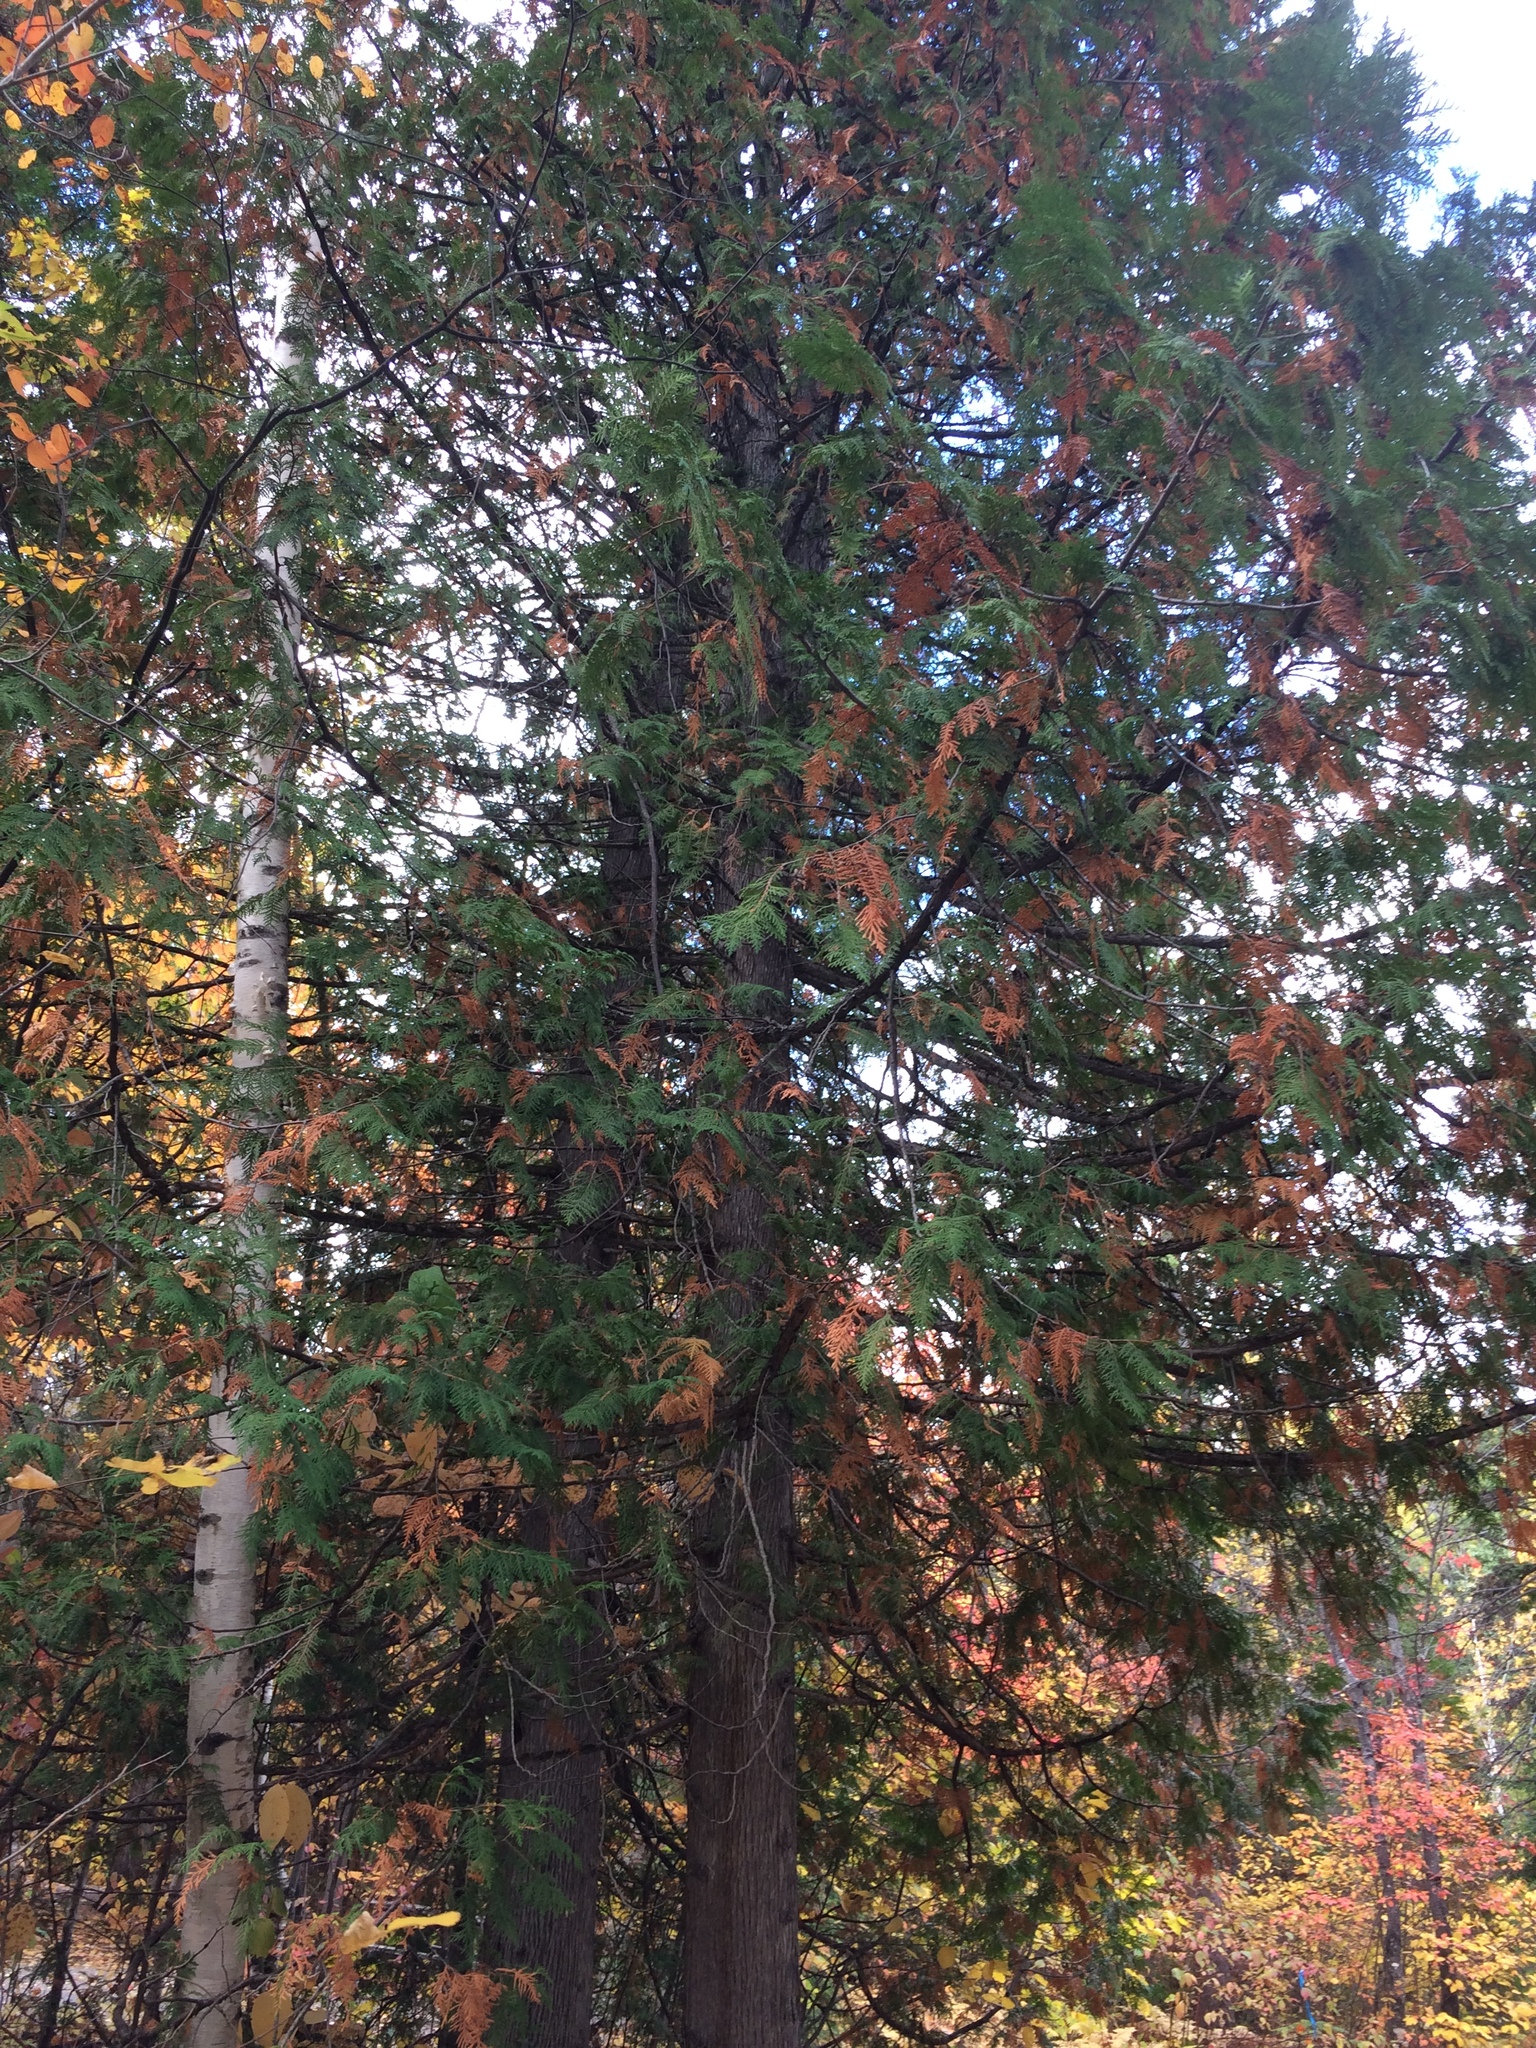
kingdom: Plantae
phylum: Tracheophyta
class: Pinopsida
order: Pinales
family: Cupressaceae
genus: Thuja
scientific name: Thuja occidentalis
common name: Northern white-cedar
